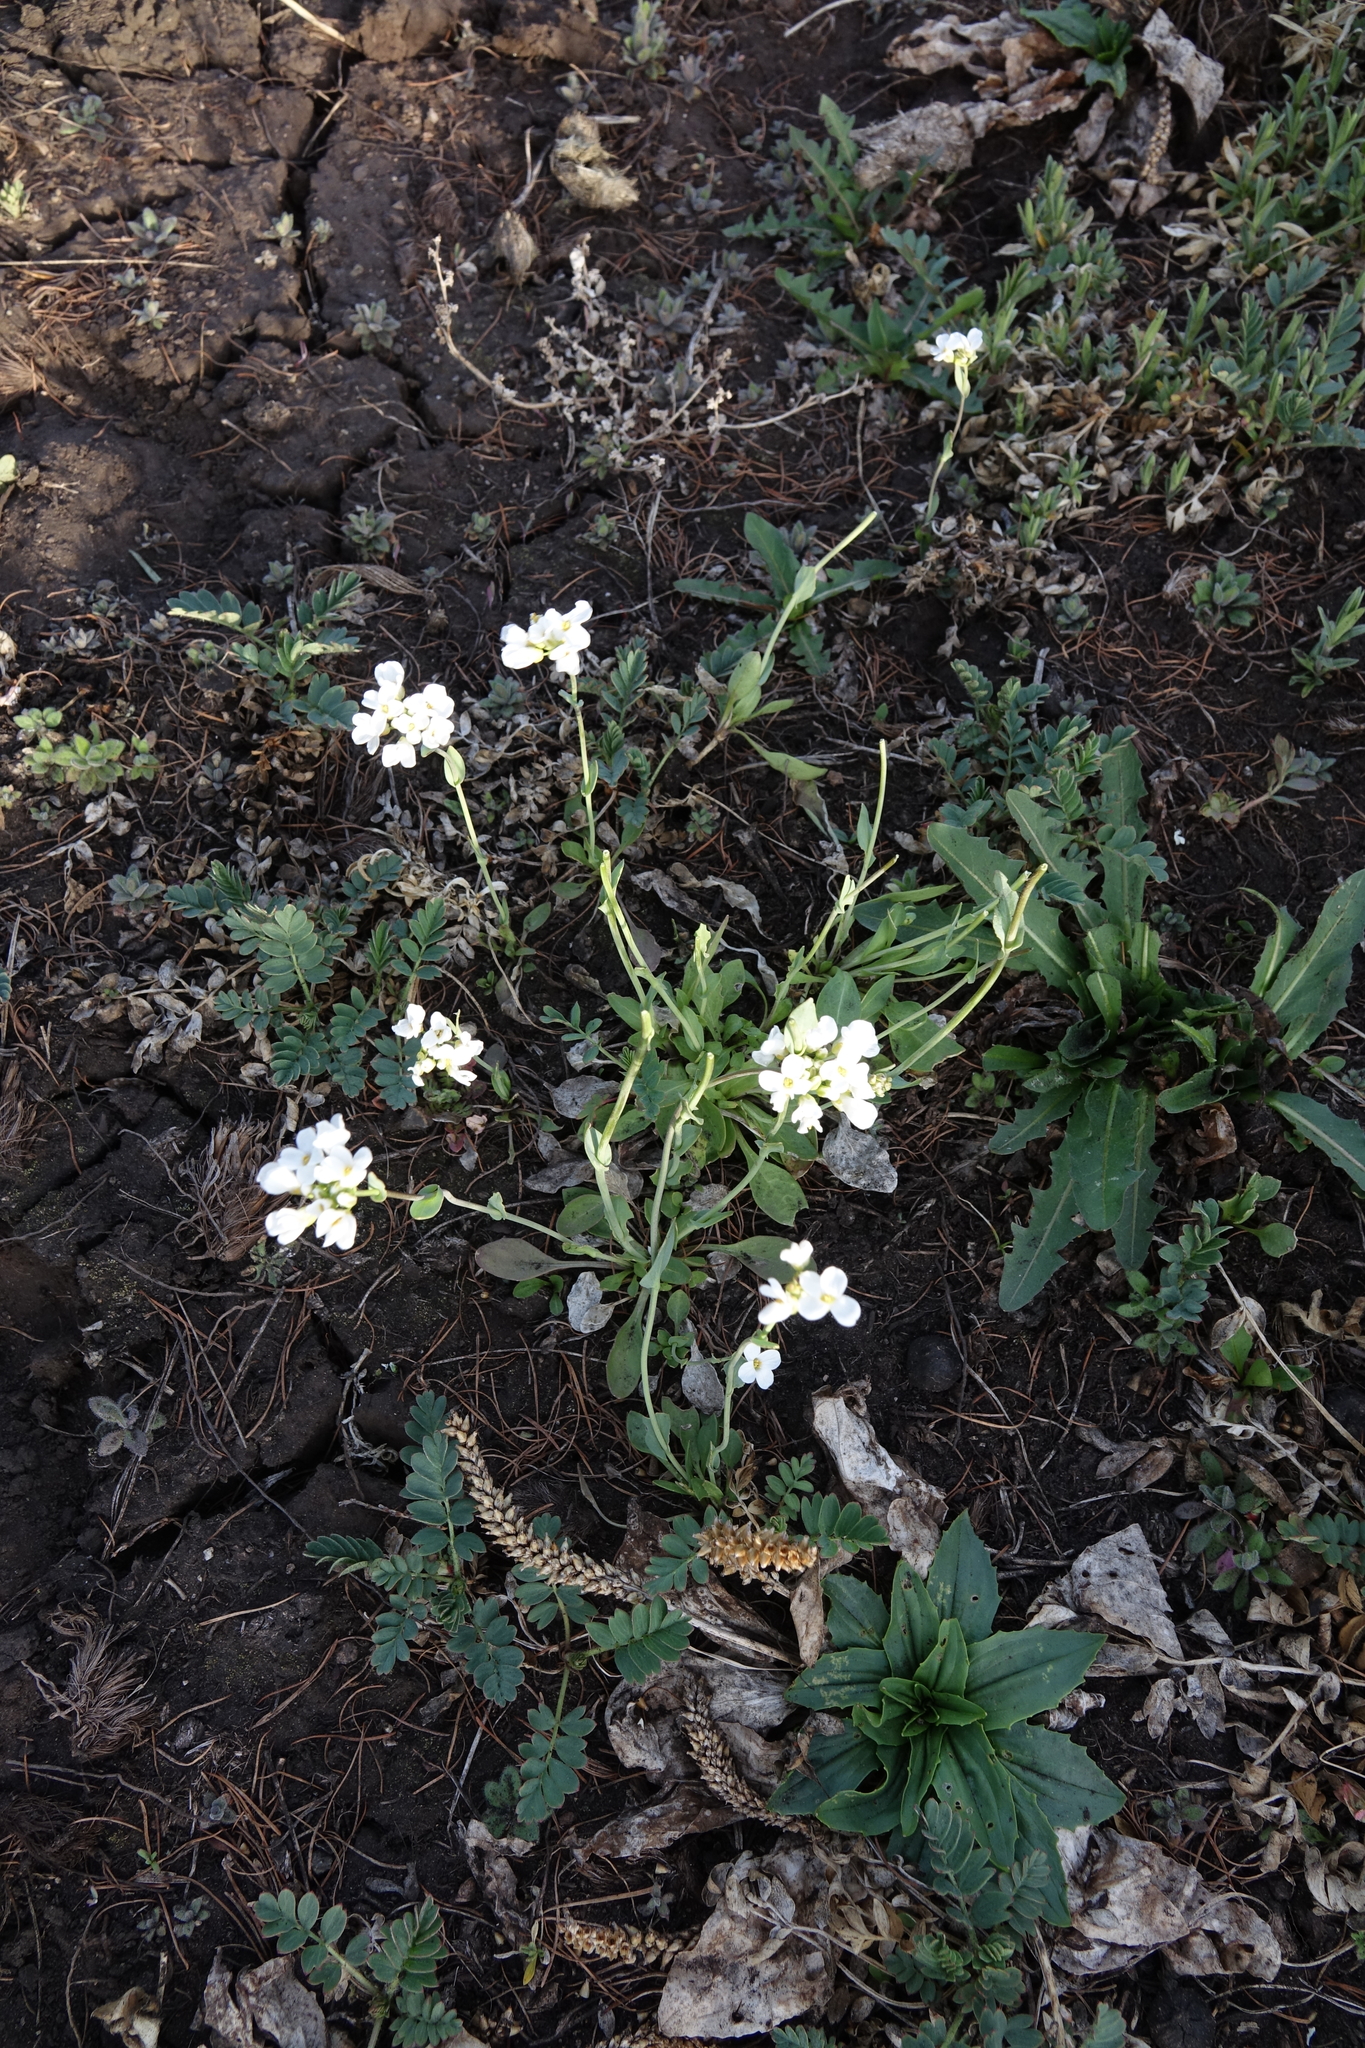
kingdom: Plantae
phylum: Tracheophyta
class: Magnoliopsida
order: Brassicales
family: Brassicaceae
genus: Noccaea
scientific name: Noccaea thlaspidioides
